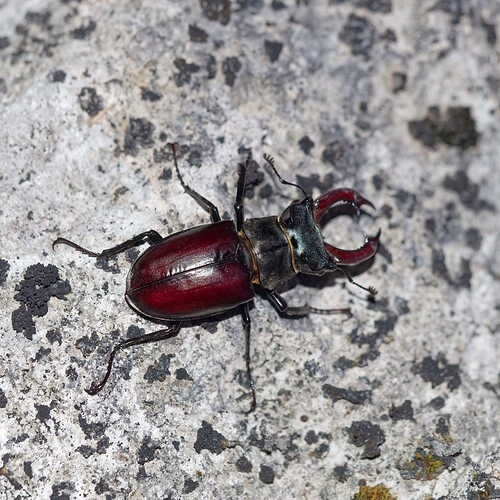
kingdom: Animalia
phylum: Arthropoda
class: Insecta
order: Coleoptera
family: Lucanidae
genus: Lucanus
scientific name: Lucanus cervus
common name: Stag beetle
